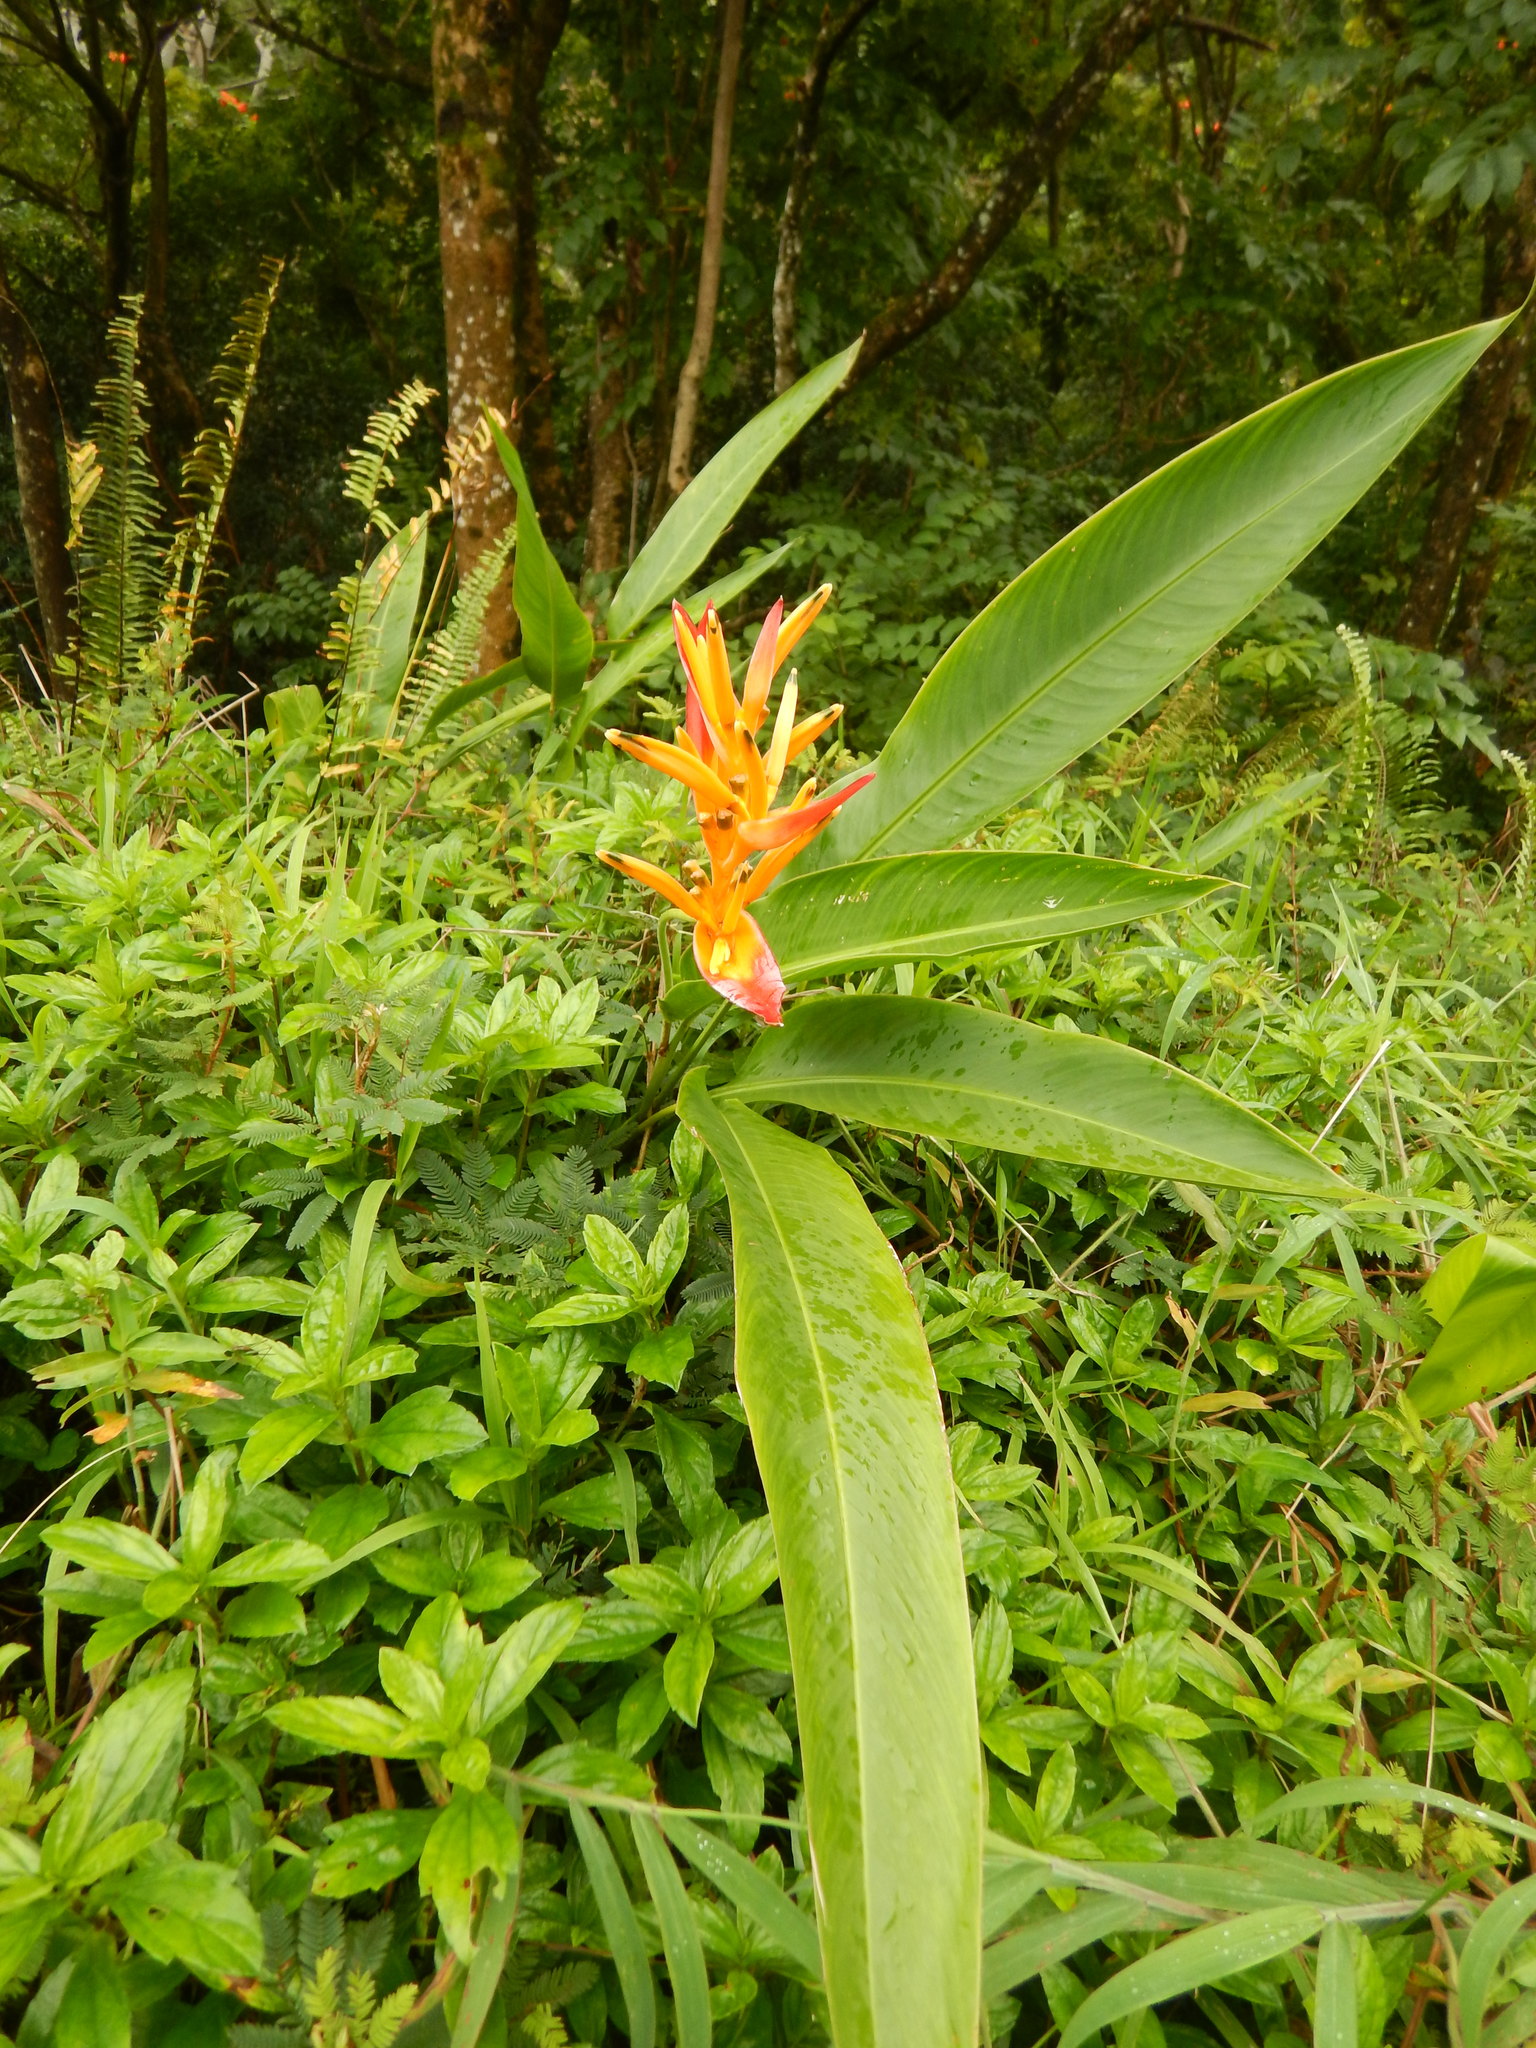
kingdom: Plantae
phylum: Tracheophyta
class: Liliopsida
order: Zingiberales
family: Heliconiaceae
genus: Heliconia
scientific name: Heliconia psittacorum
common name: Parrot's-flower
